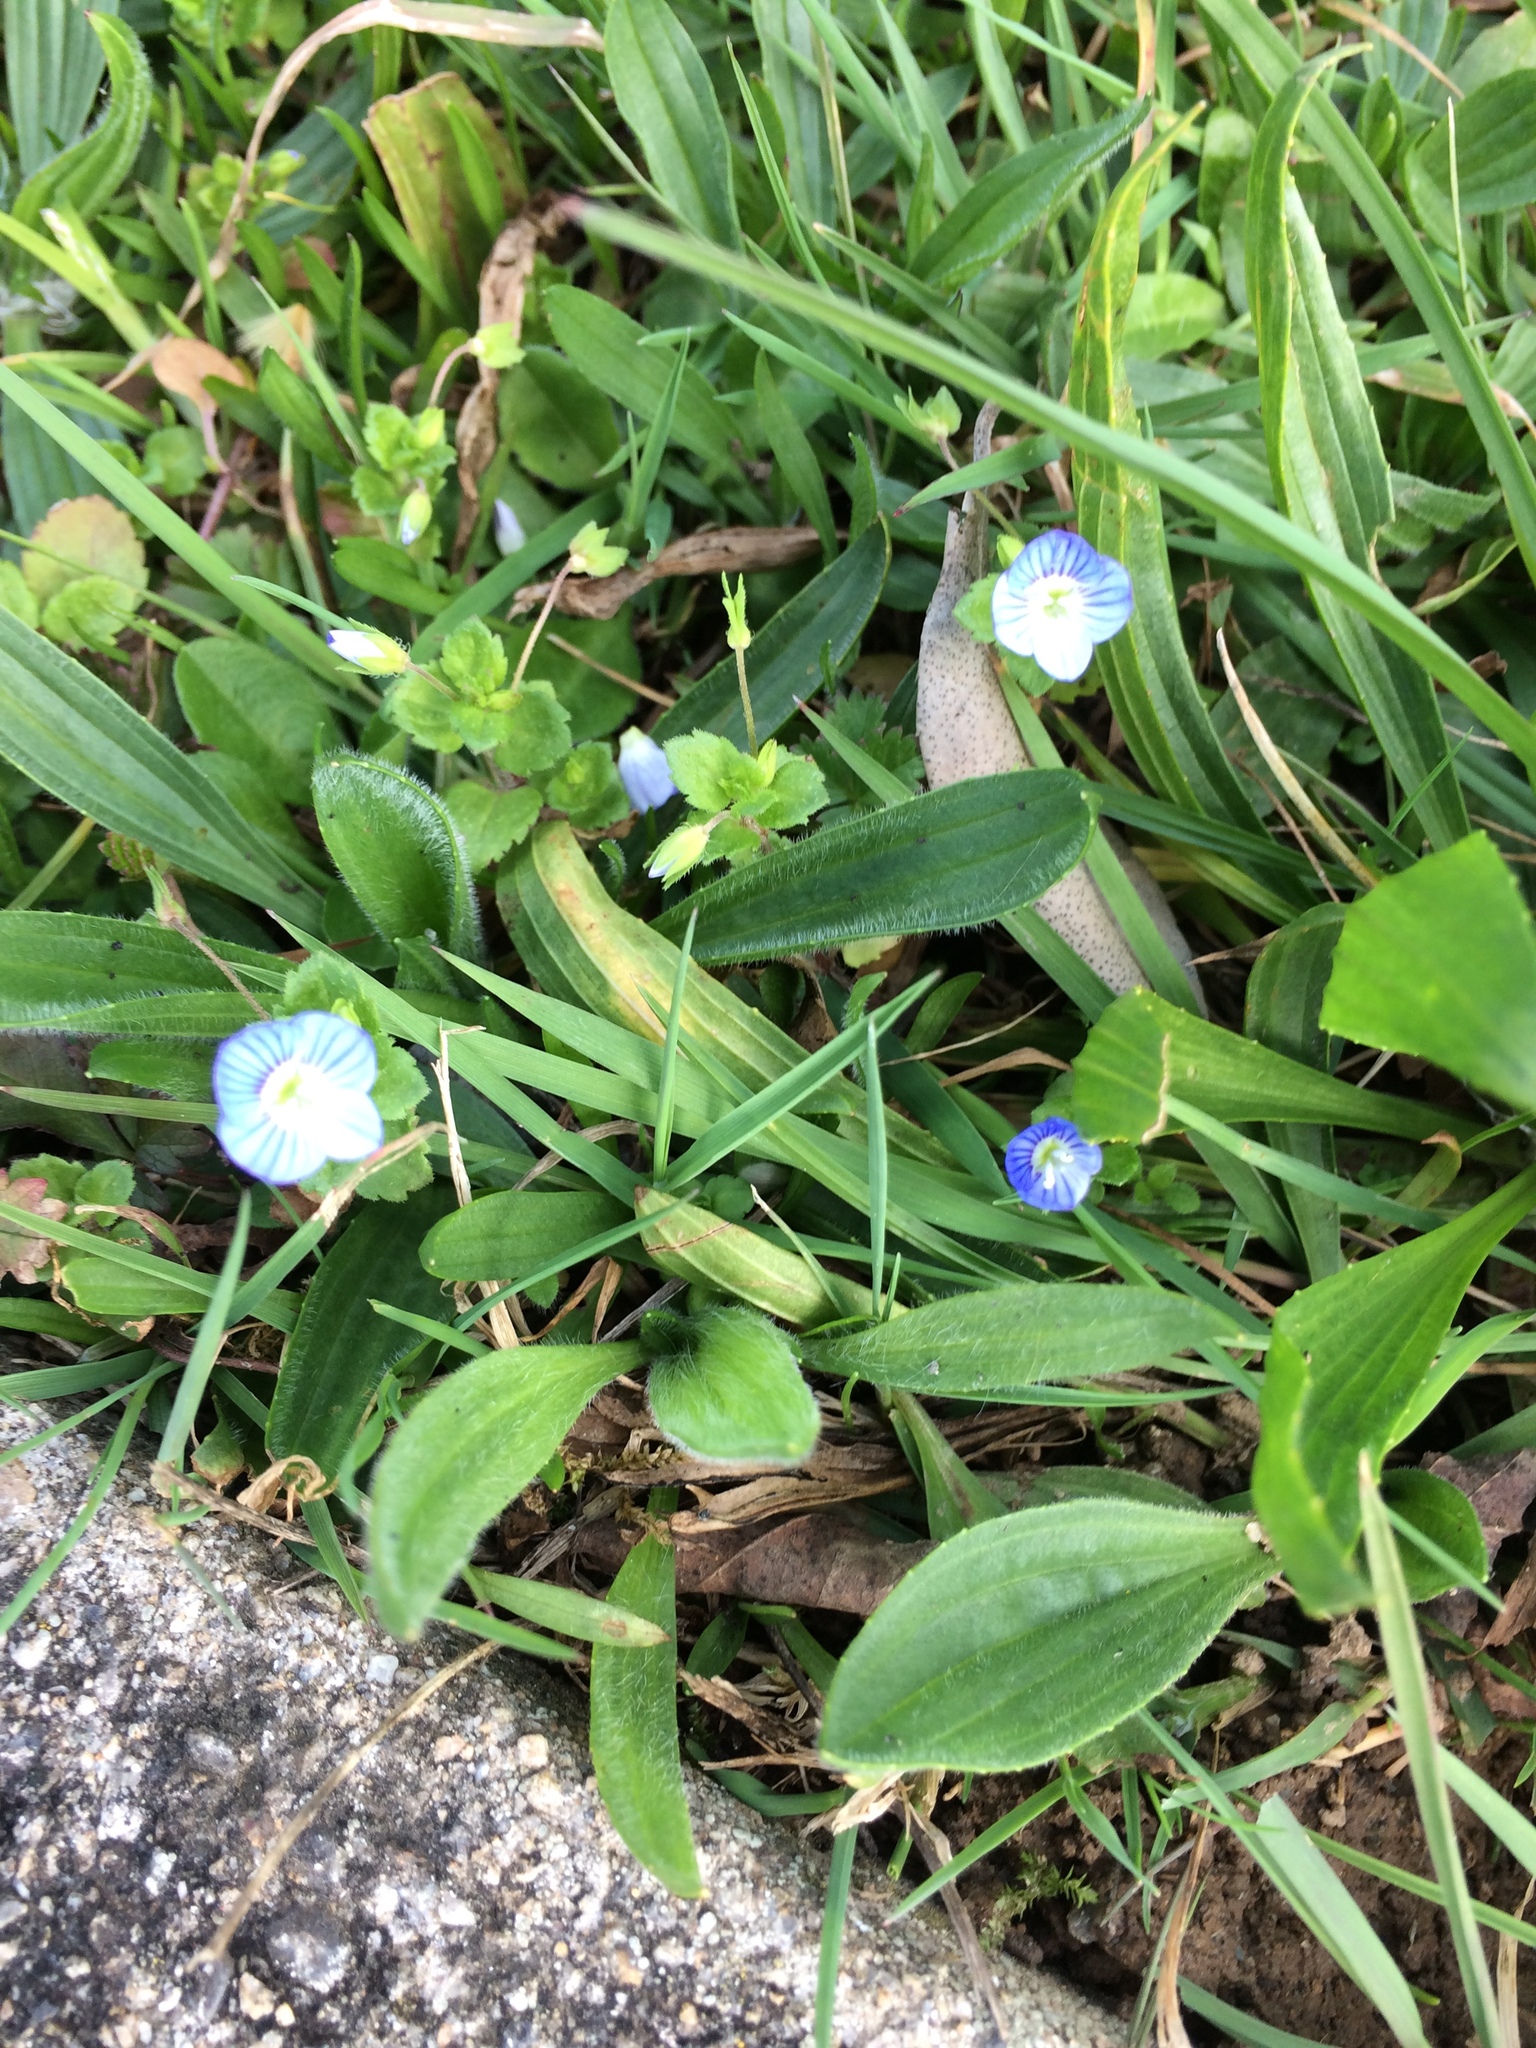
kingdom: Plantae
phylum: Tracheophyta
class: Magnoliopsida
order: Lamiales
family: Plantaginaceae
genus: Veronica
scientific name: Veronica persica
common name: Common field-speedwell
